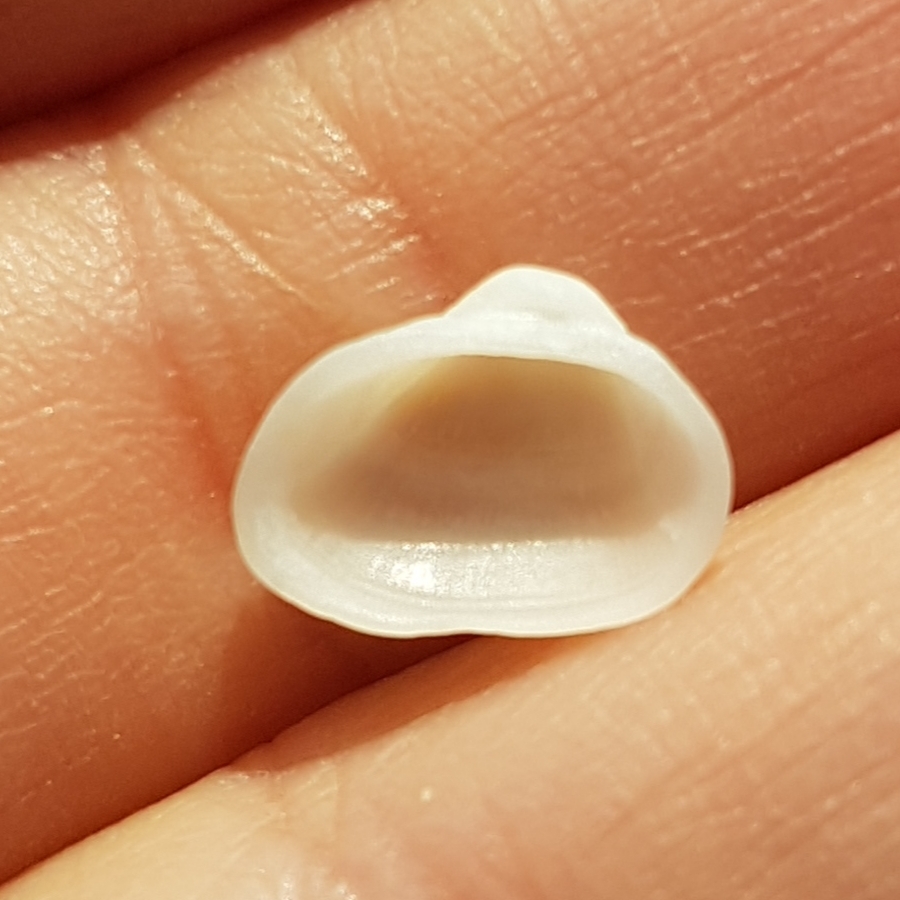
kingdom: Animalia
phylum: Mollusca
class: Bivalvia
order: Arcida
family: Noetiidae
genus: Striarca
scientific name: Striarca lactea
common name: Milky-white ark
